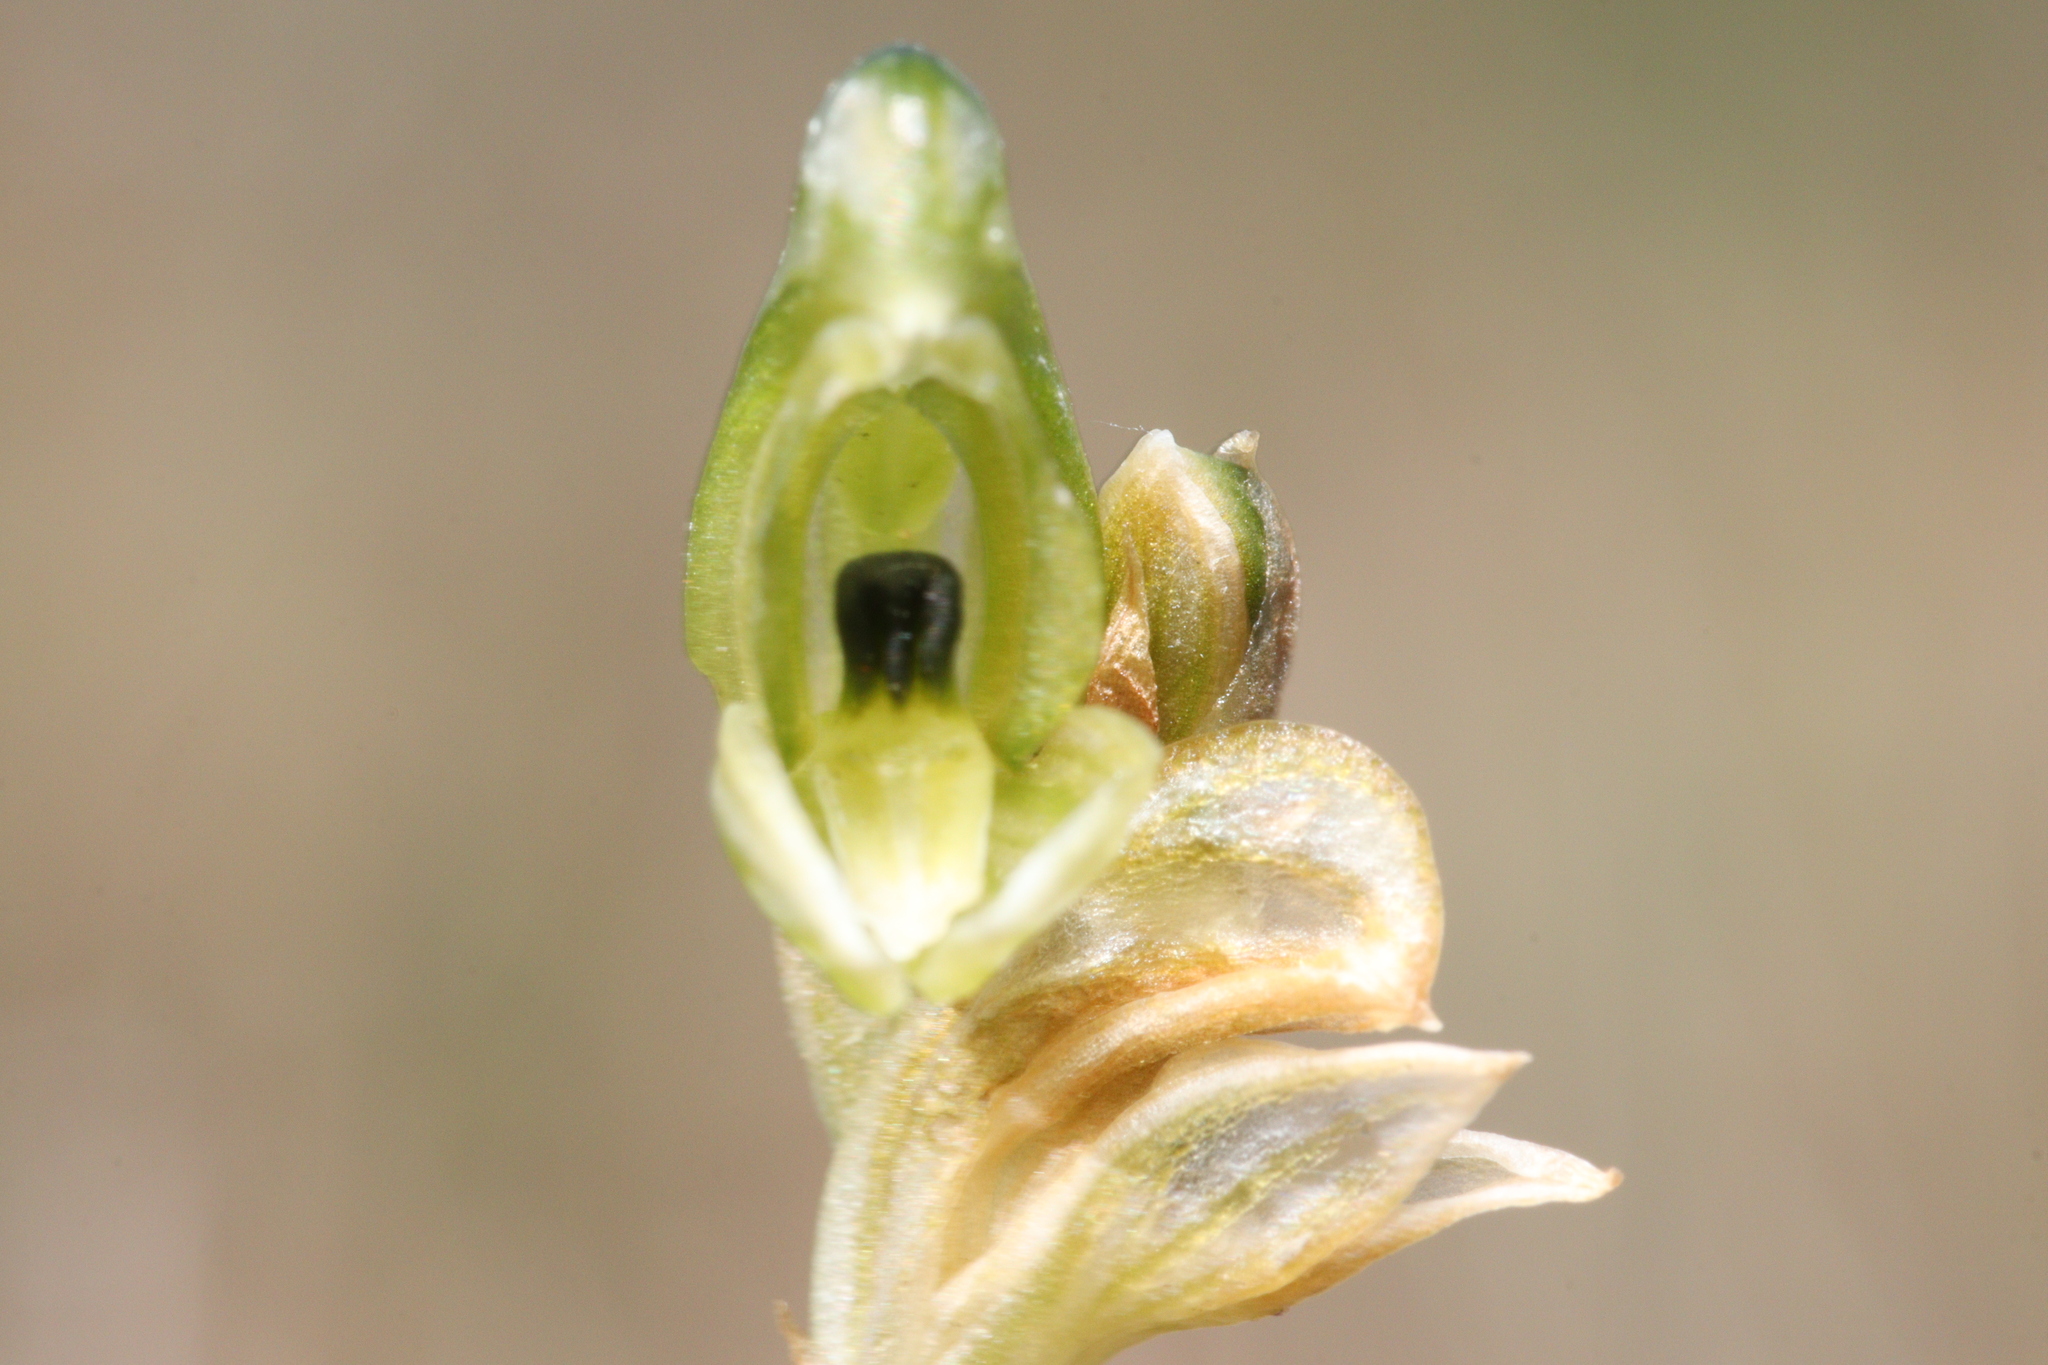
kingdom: Plantae
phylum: Tracheophyta
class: Liliopsida
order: Asparagales
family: Orchidaceae
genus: Pterostylis
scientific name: Pterostylis bicolor
